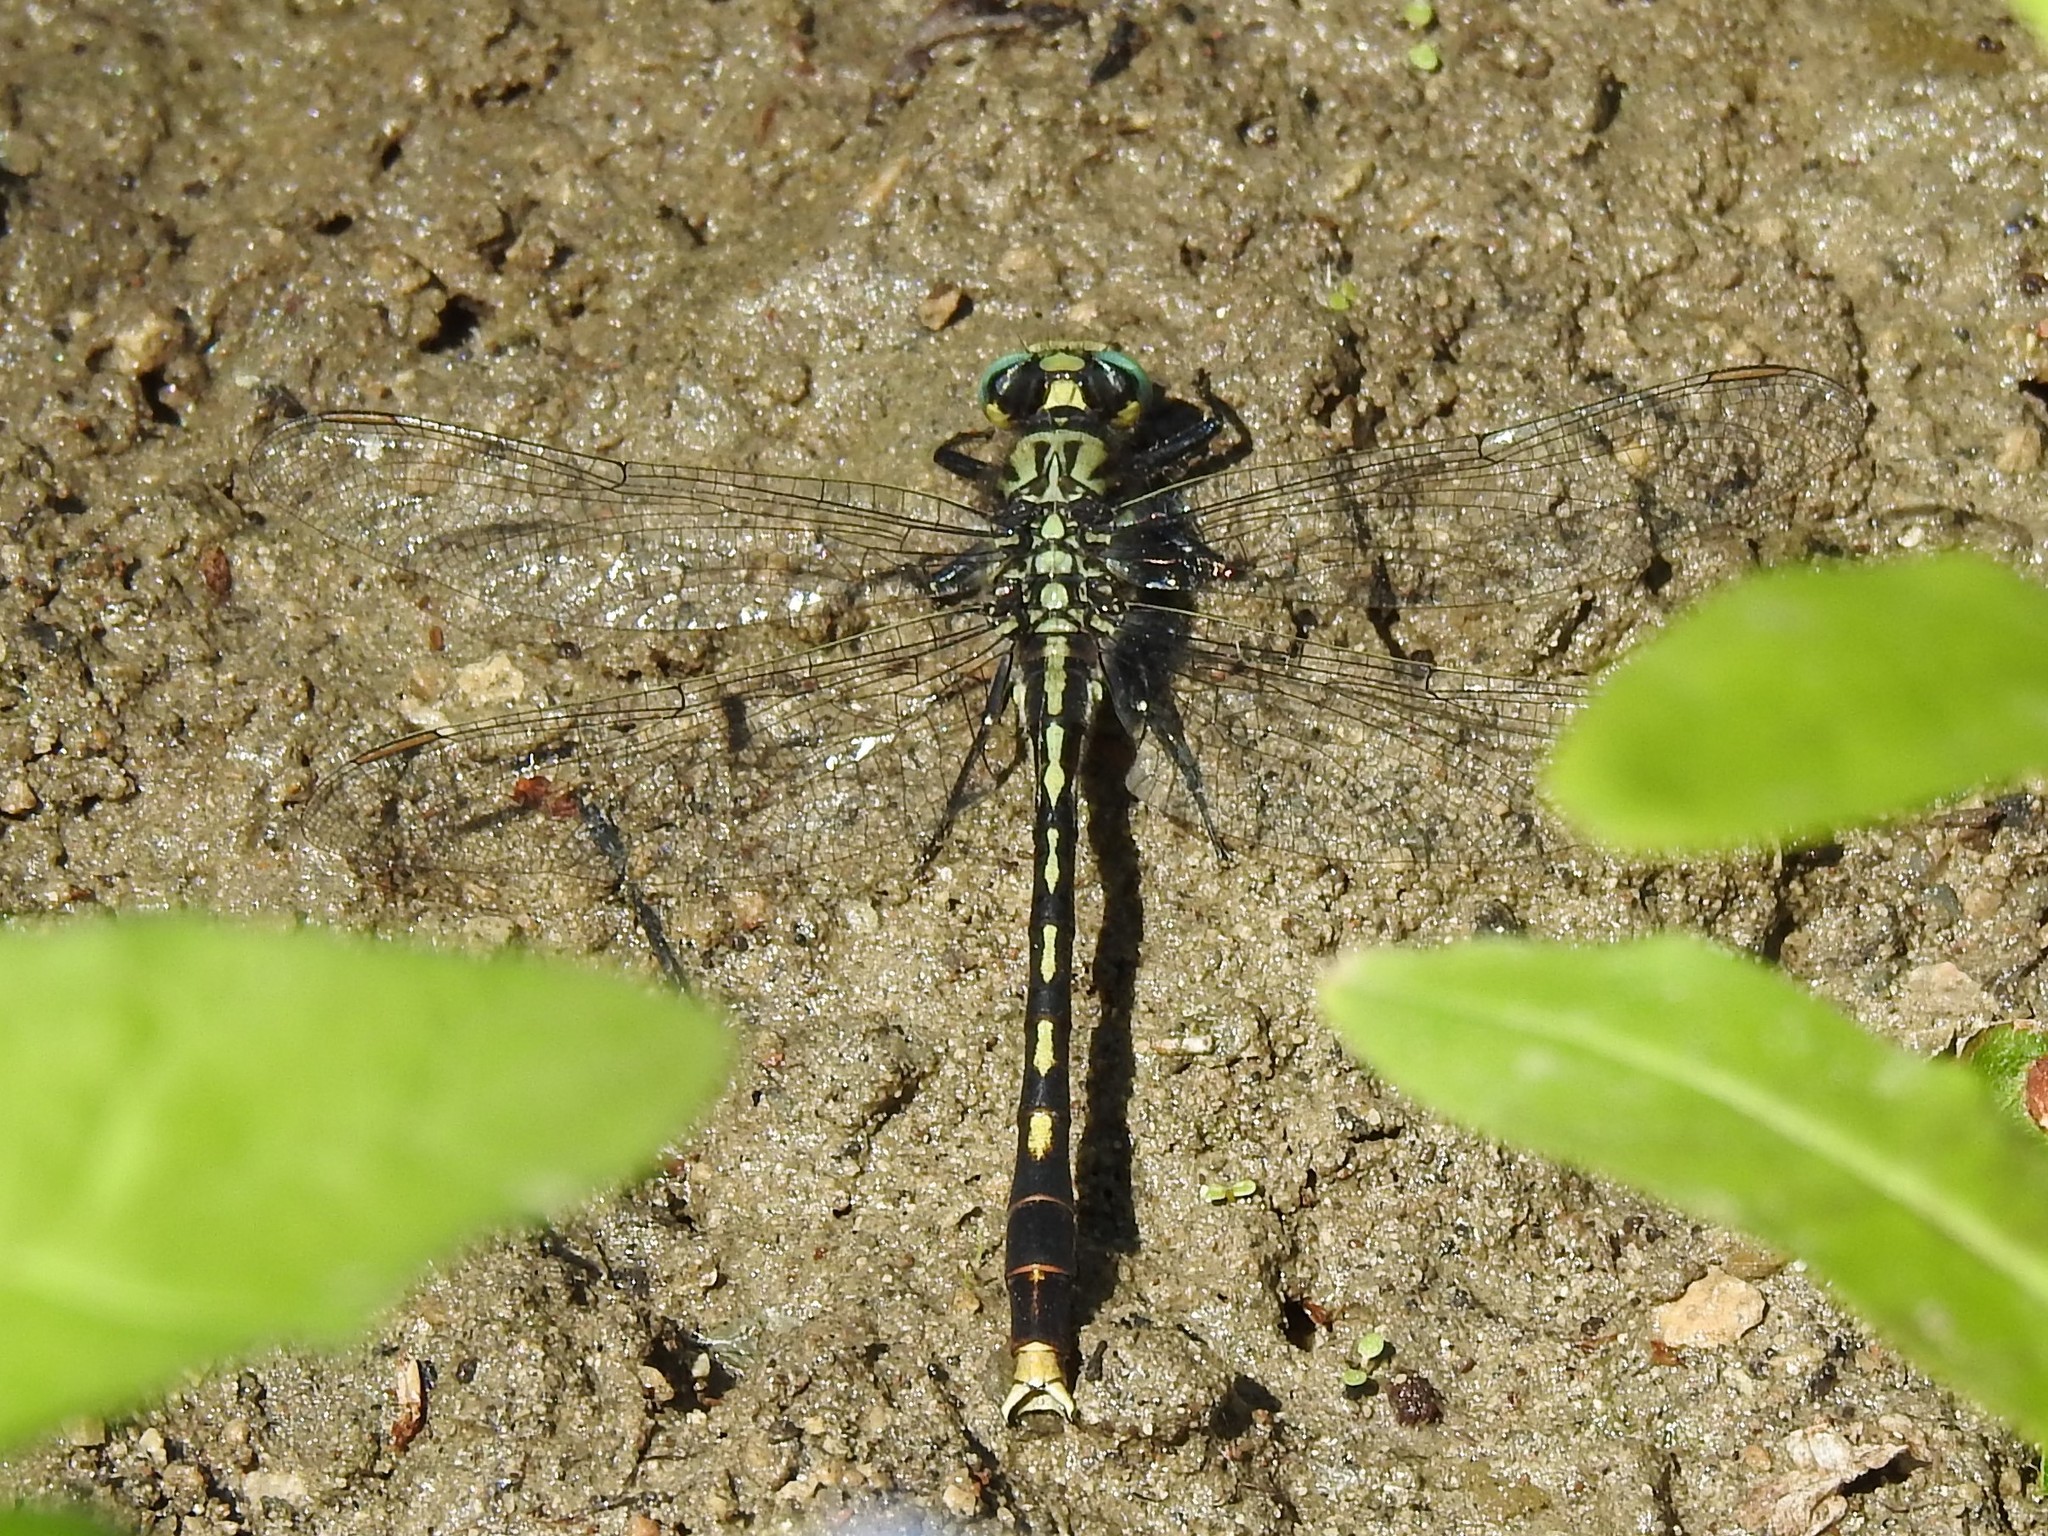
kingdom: Animalia
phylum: Arthropoda
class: Insecta
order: Odonata
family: Gomphidae
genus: Arigomphus
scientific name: Arigomphus villosipes
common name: Unicorn clubtail
